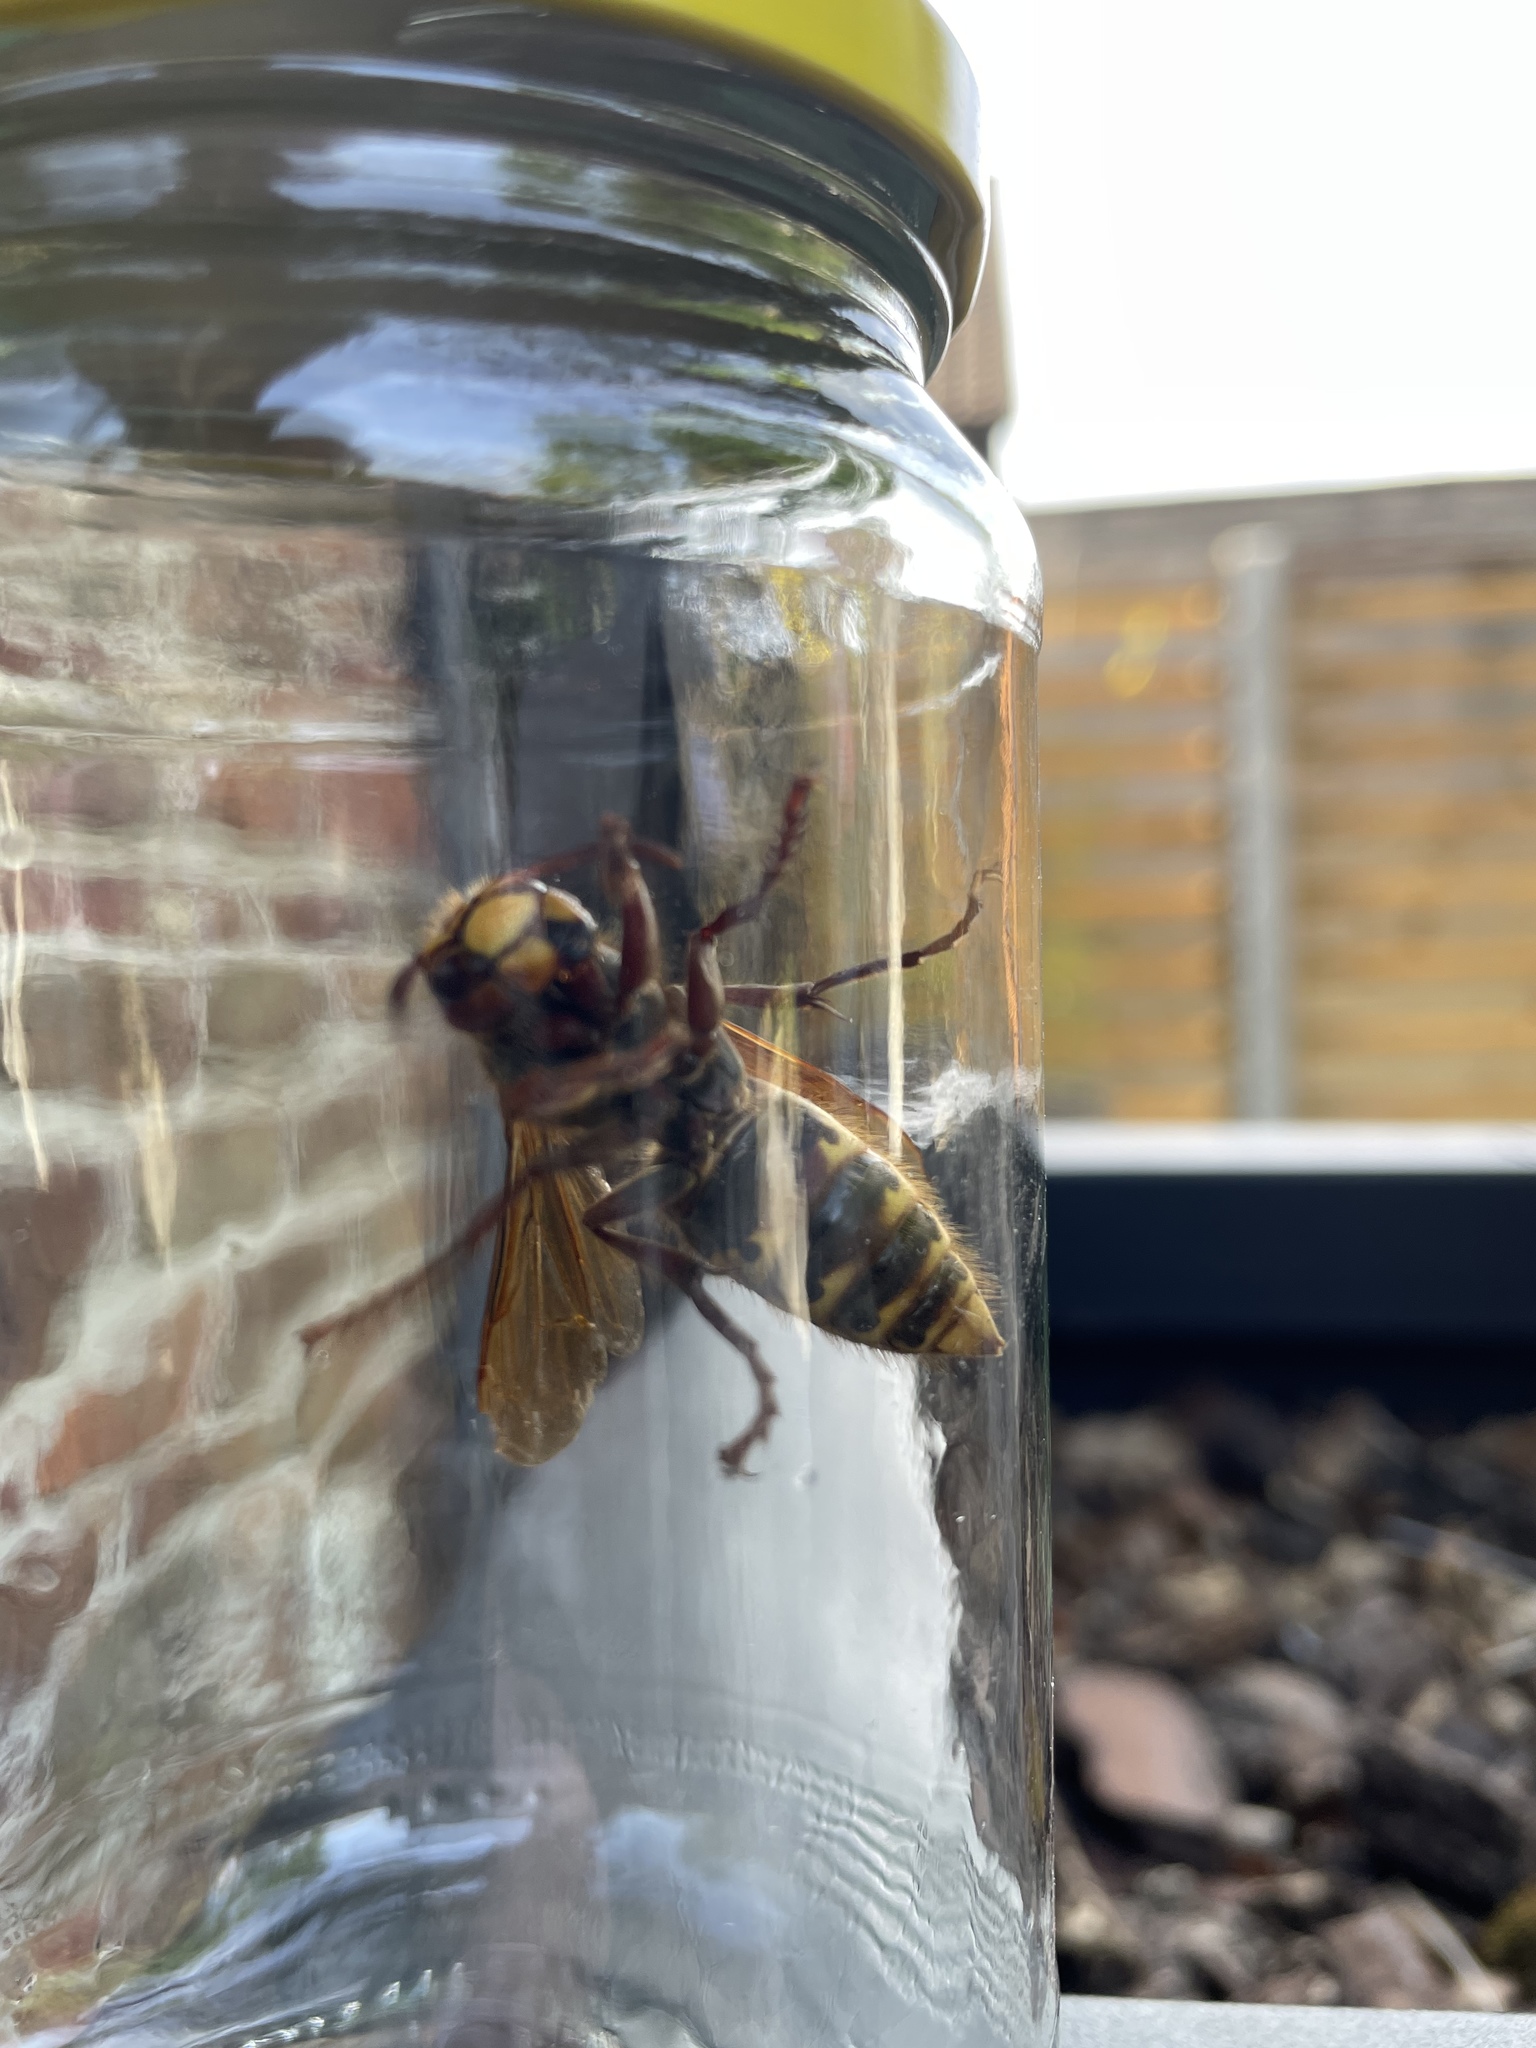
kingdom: Animalia
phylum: Arthropoda
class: Insecta
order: Hymenoptera
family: Vespidae
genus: Vespa
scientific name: Vespa crabro
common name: Hornet
